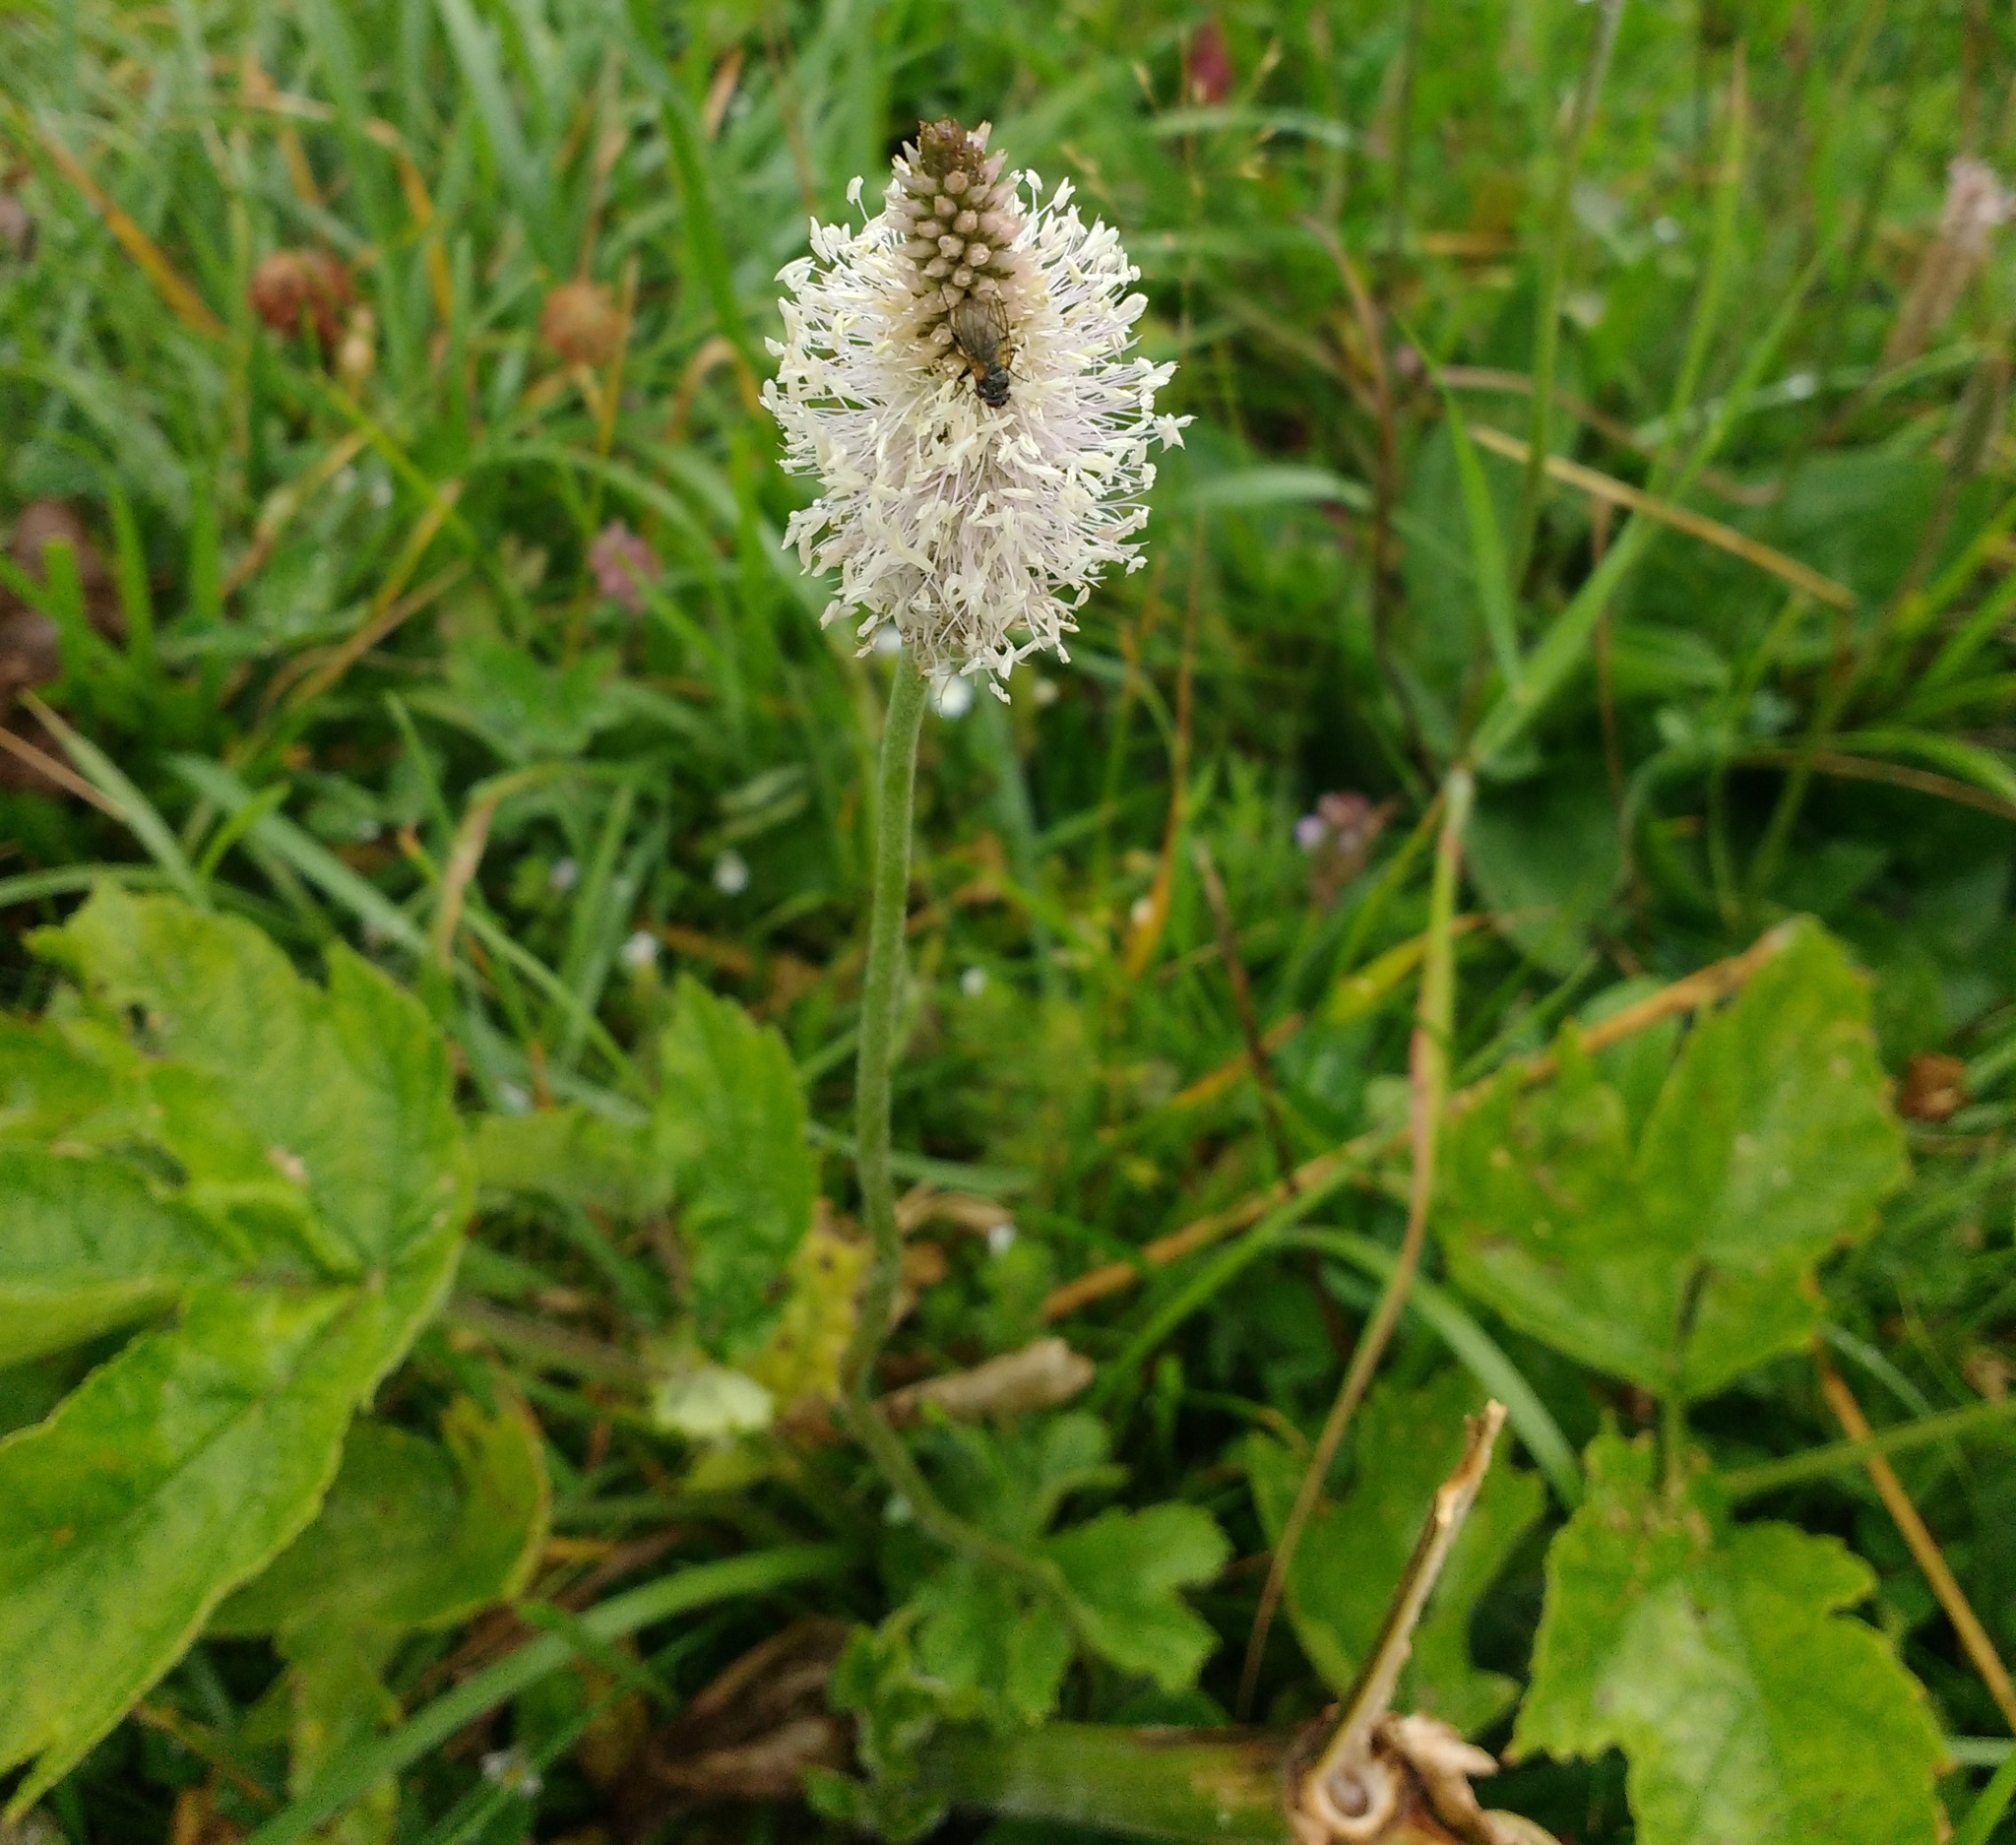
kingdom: Plantae
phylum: Tracheophyta
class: Magnoliopsida
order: Lamiales
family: Plantaginaceae
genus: Plantago
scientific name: Plantago media
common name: Hoary plantain
